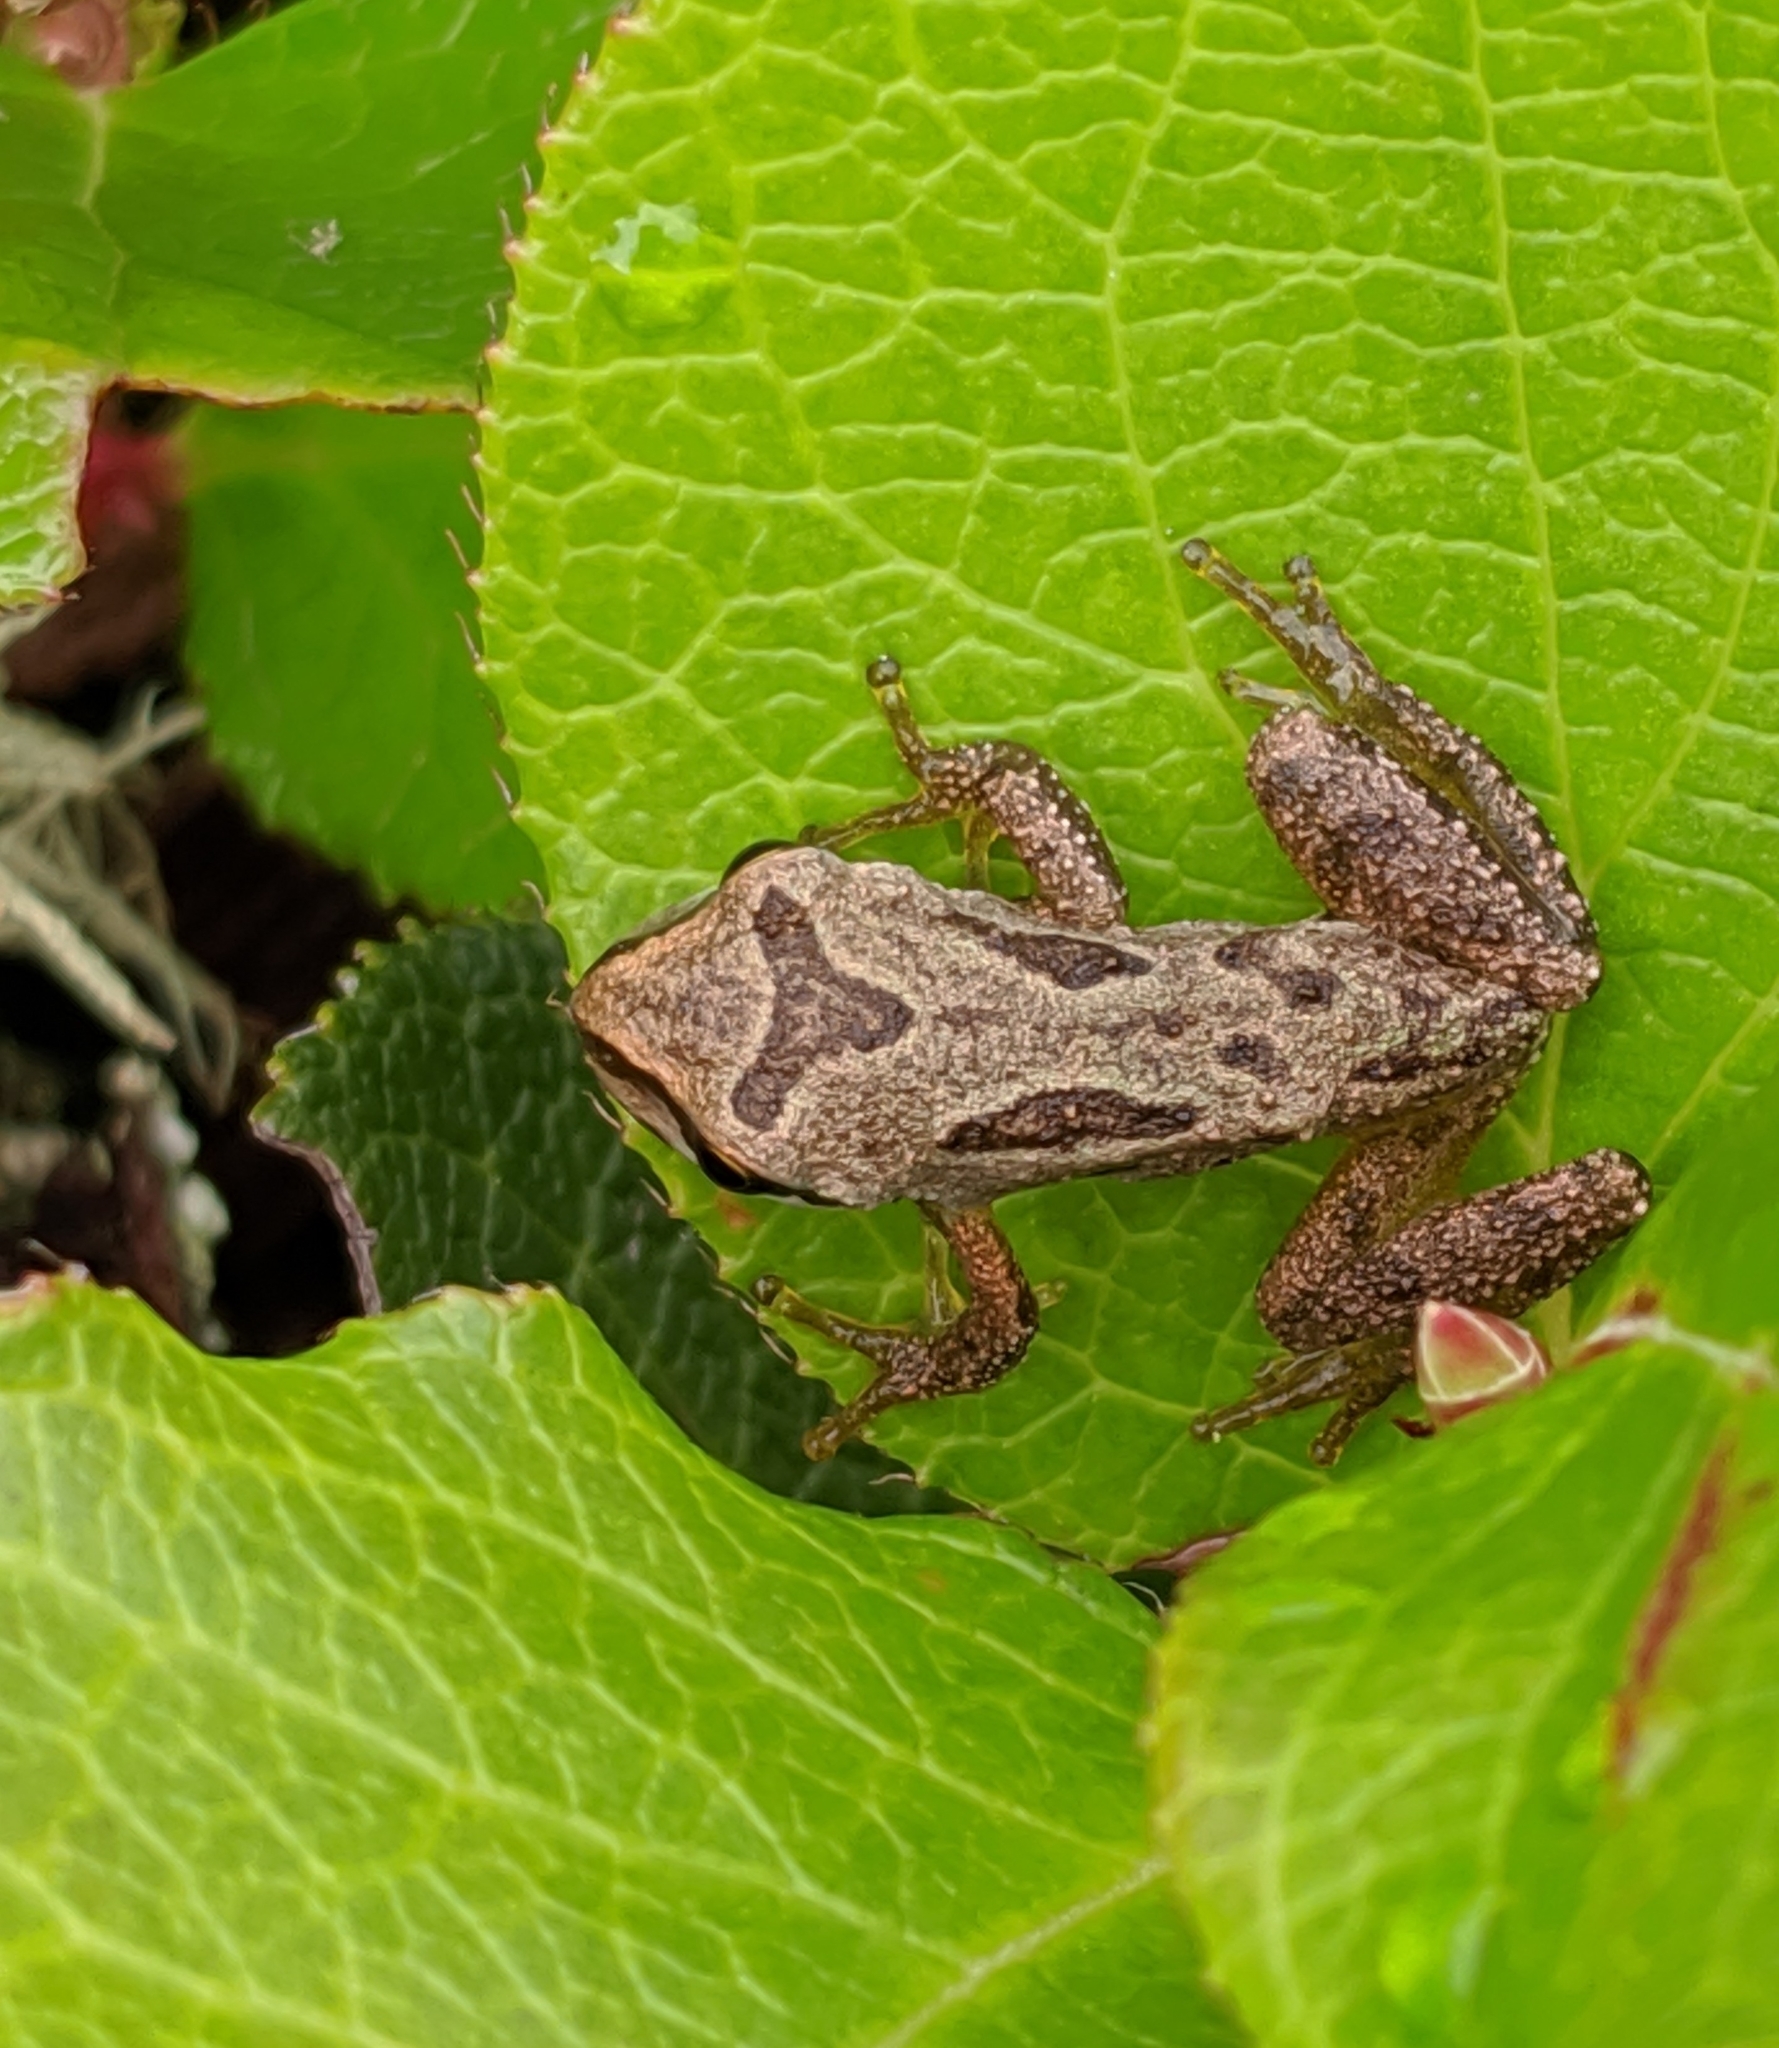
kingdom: Animalia
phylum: Chordata
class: Amphibia
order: Anura
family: Hylidae
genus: Pseudacris
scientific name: Pseudacris regilla
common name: Pacific chorus frog
